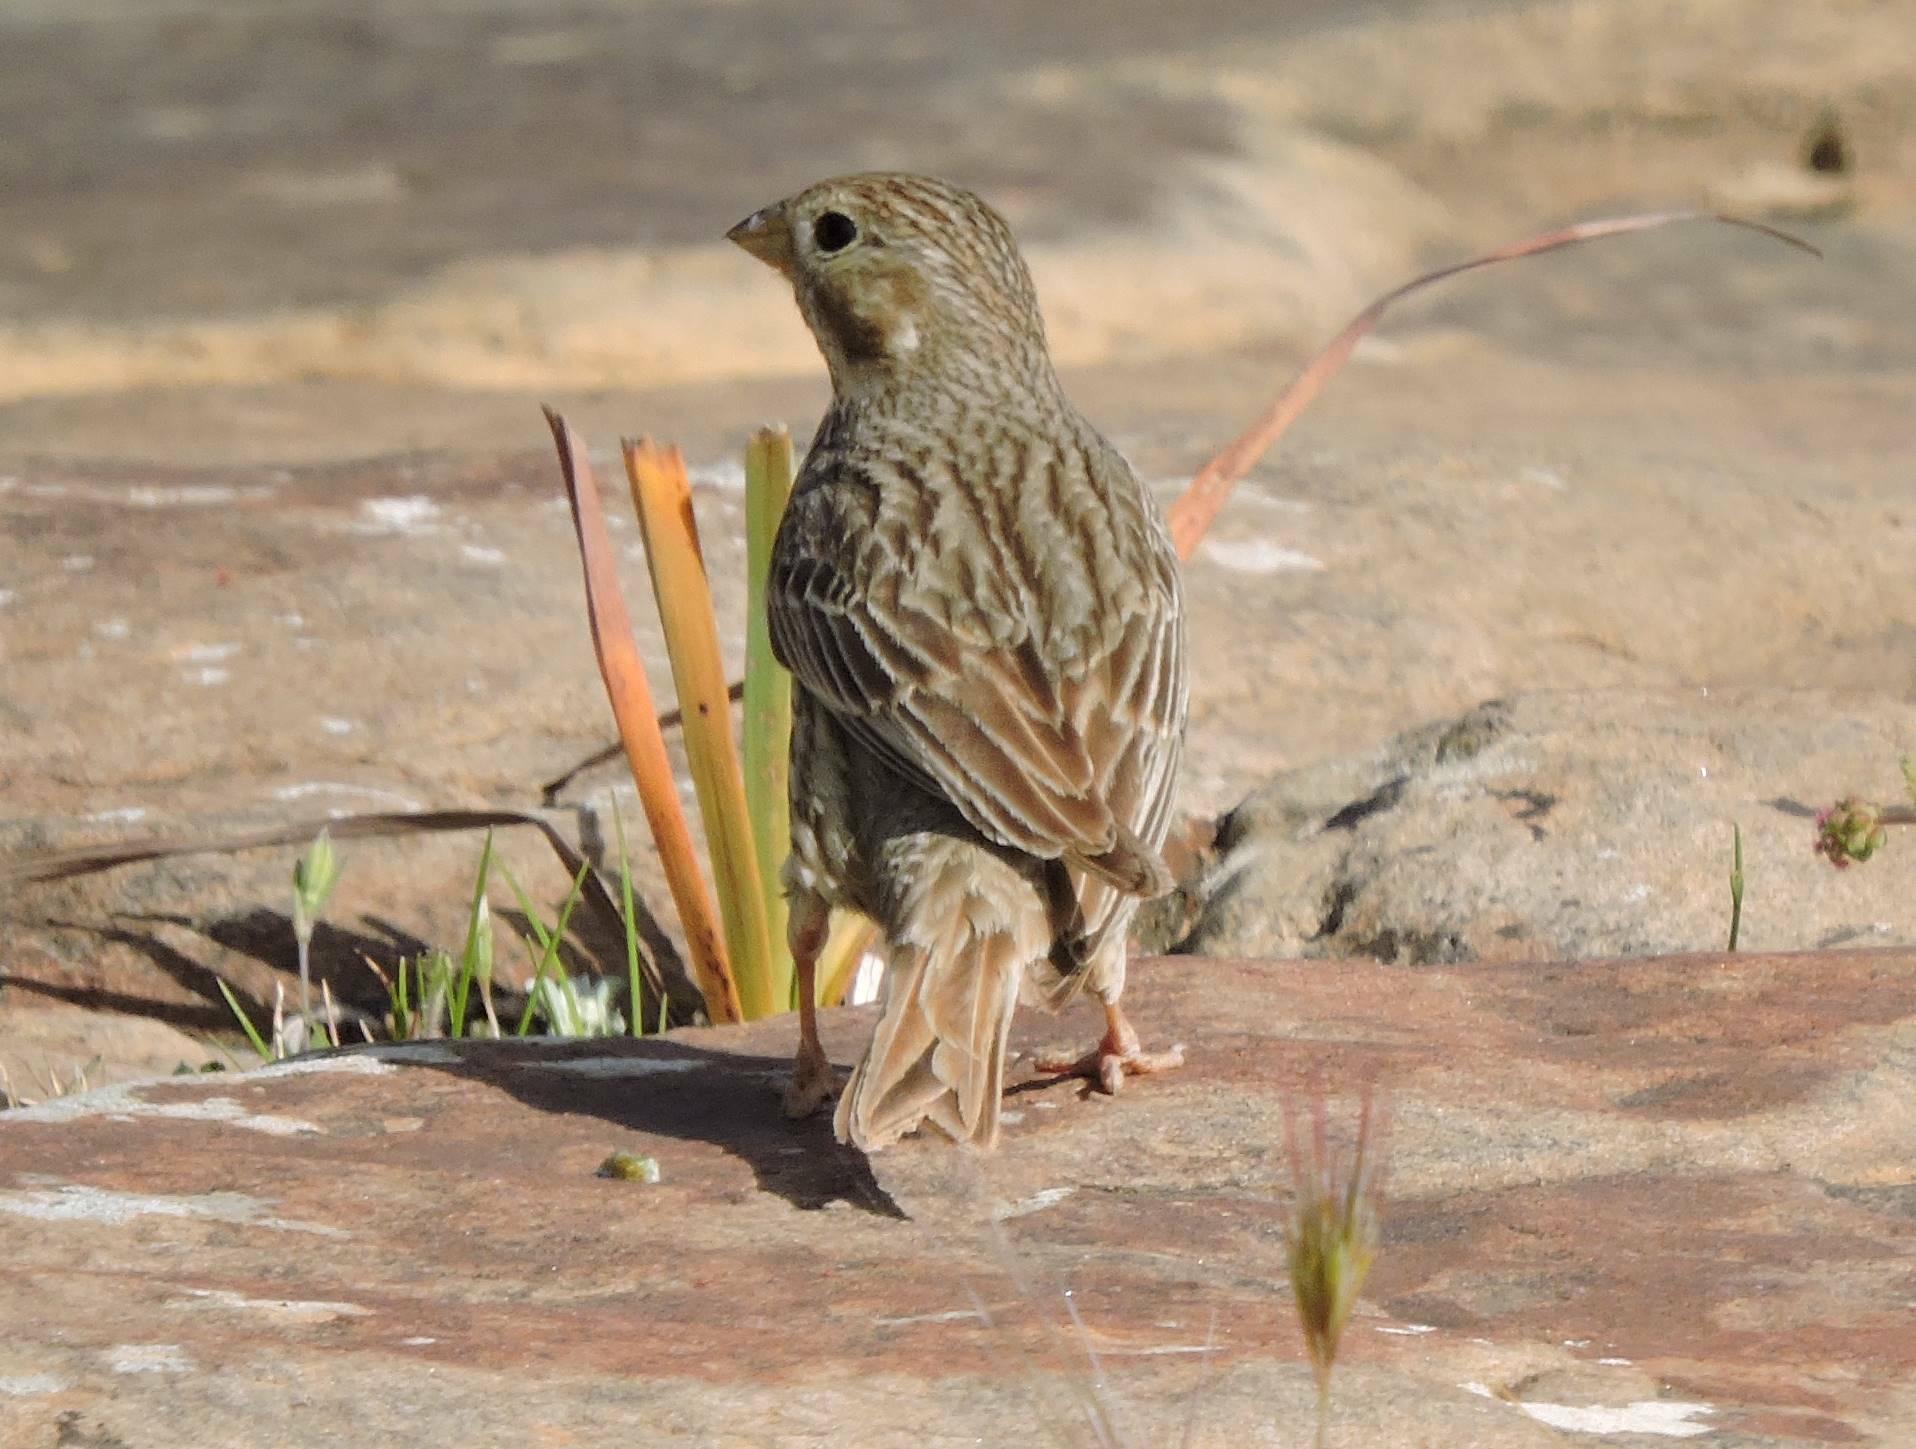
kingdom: Animalia
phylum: Chordata
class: Aves
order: Passeriformes
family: Emberizidae
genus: Emberiza
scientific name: Emberiza calandra
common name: Corn bunting
